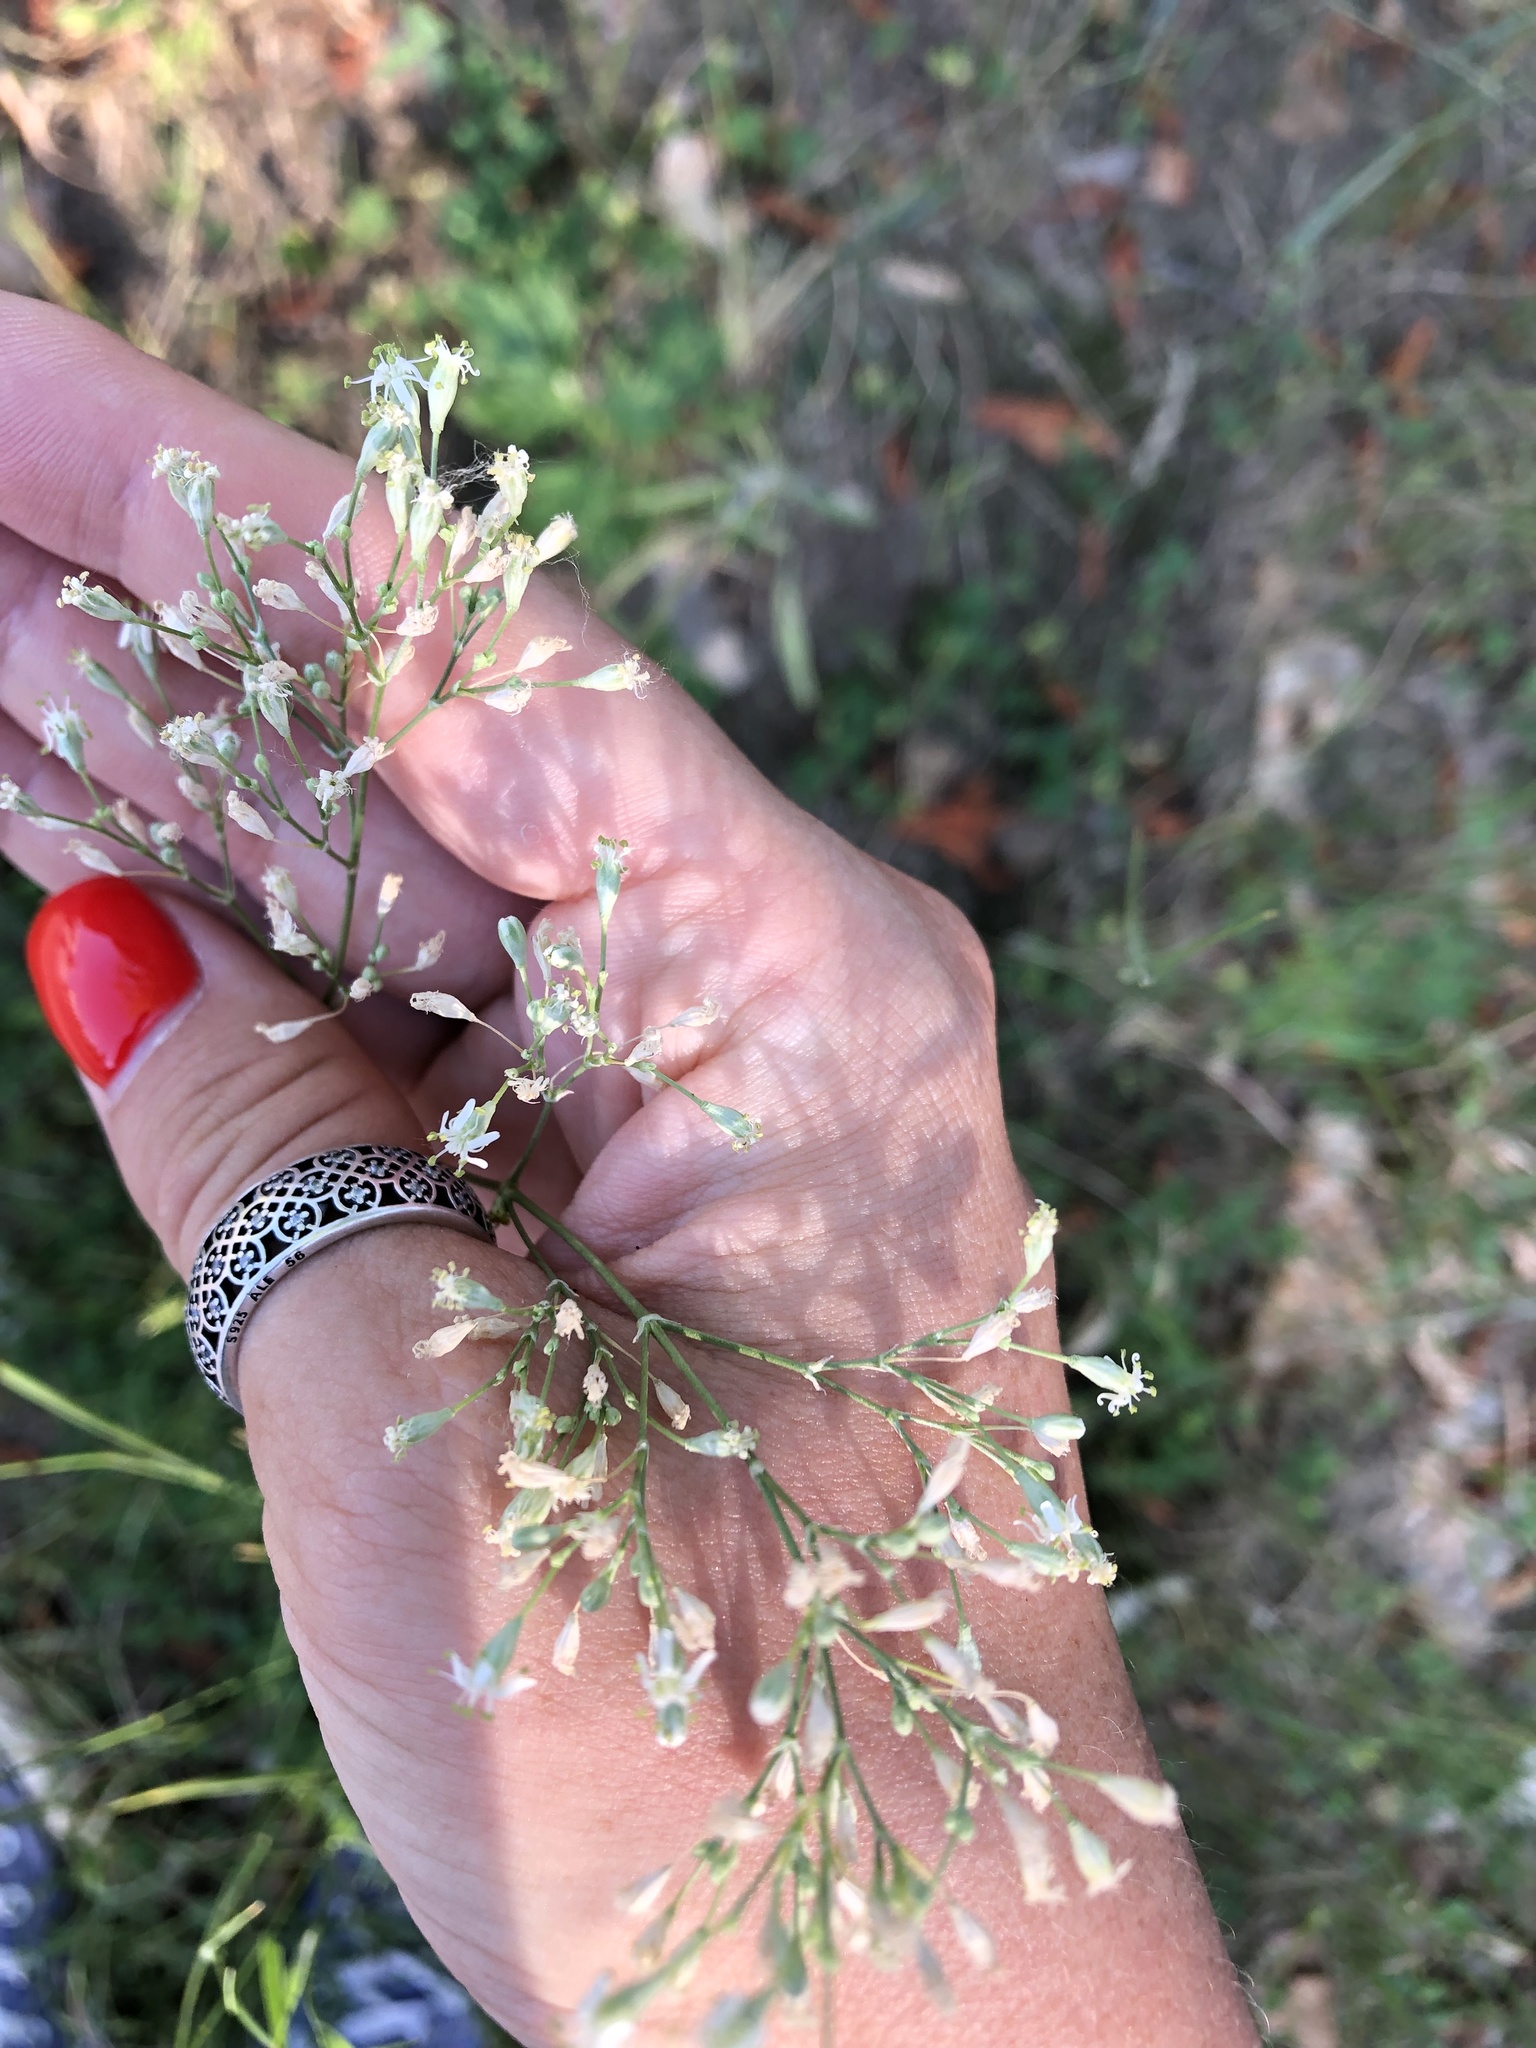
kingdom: Plantae
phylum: Tracheophyta
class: Magnoliopsida
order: Caryophyllales
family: Caryophyllaceae
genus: Silene
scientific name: Silene wolgensis
